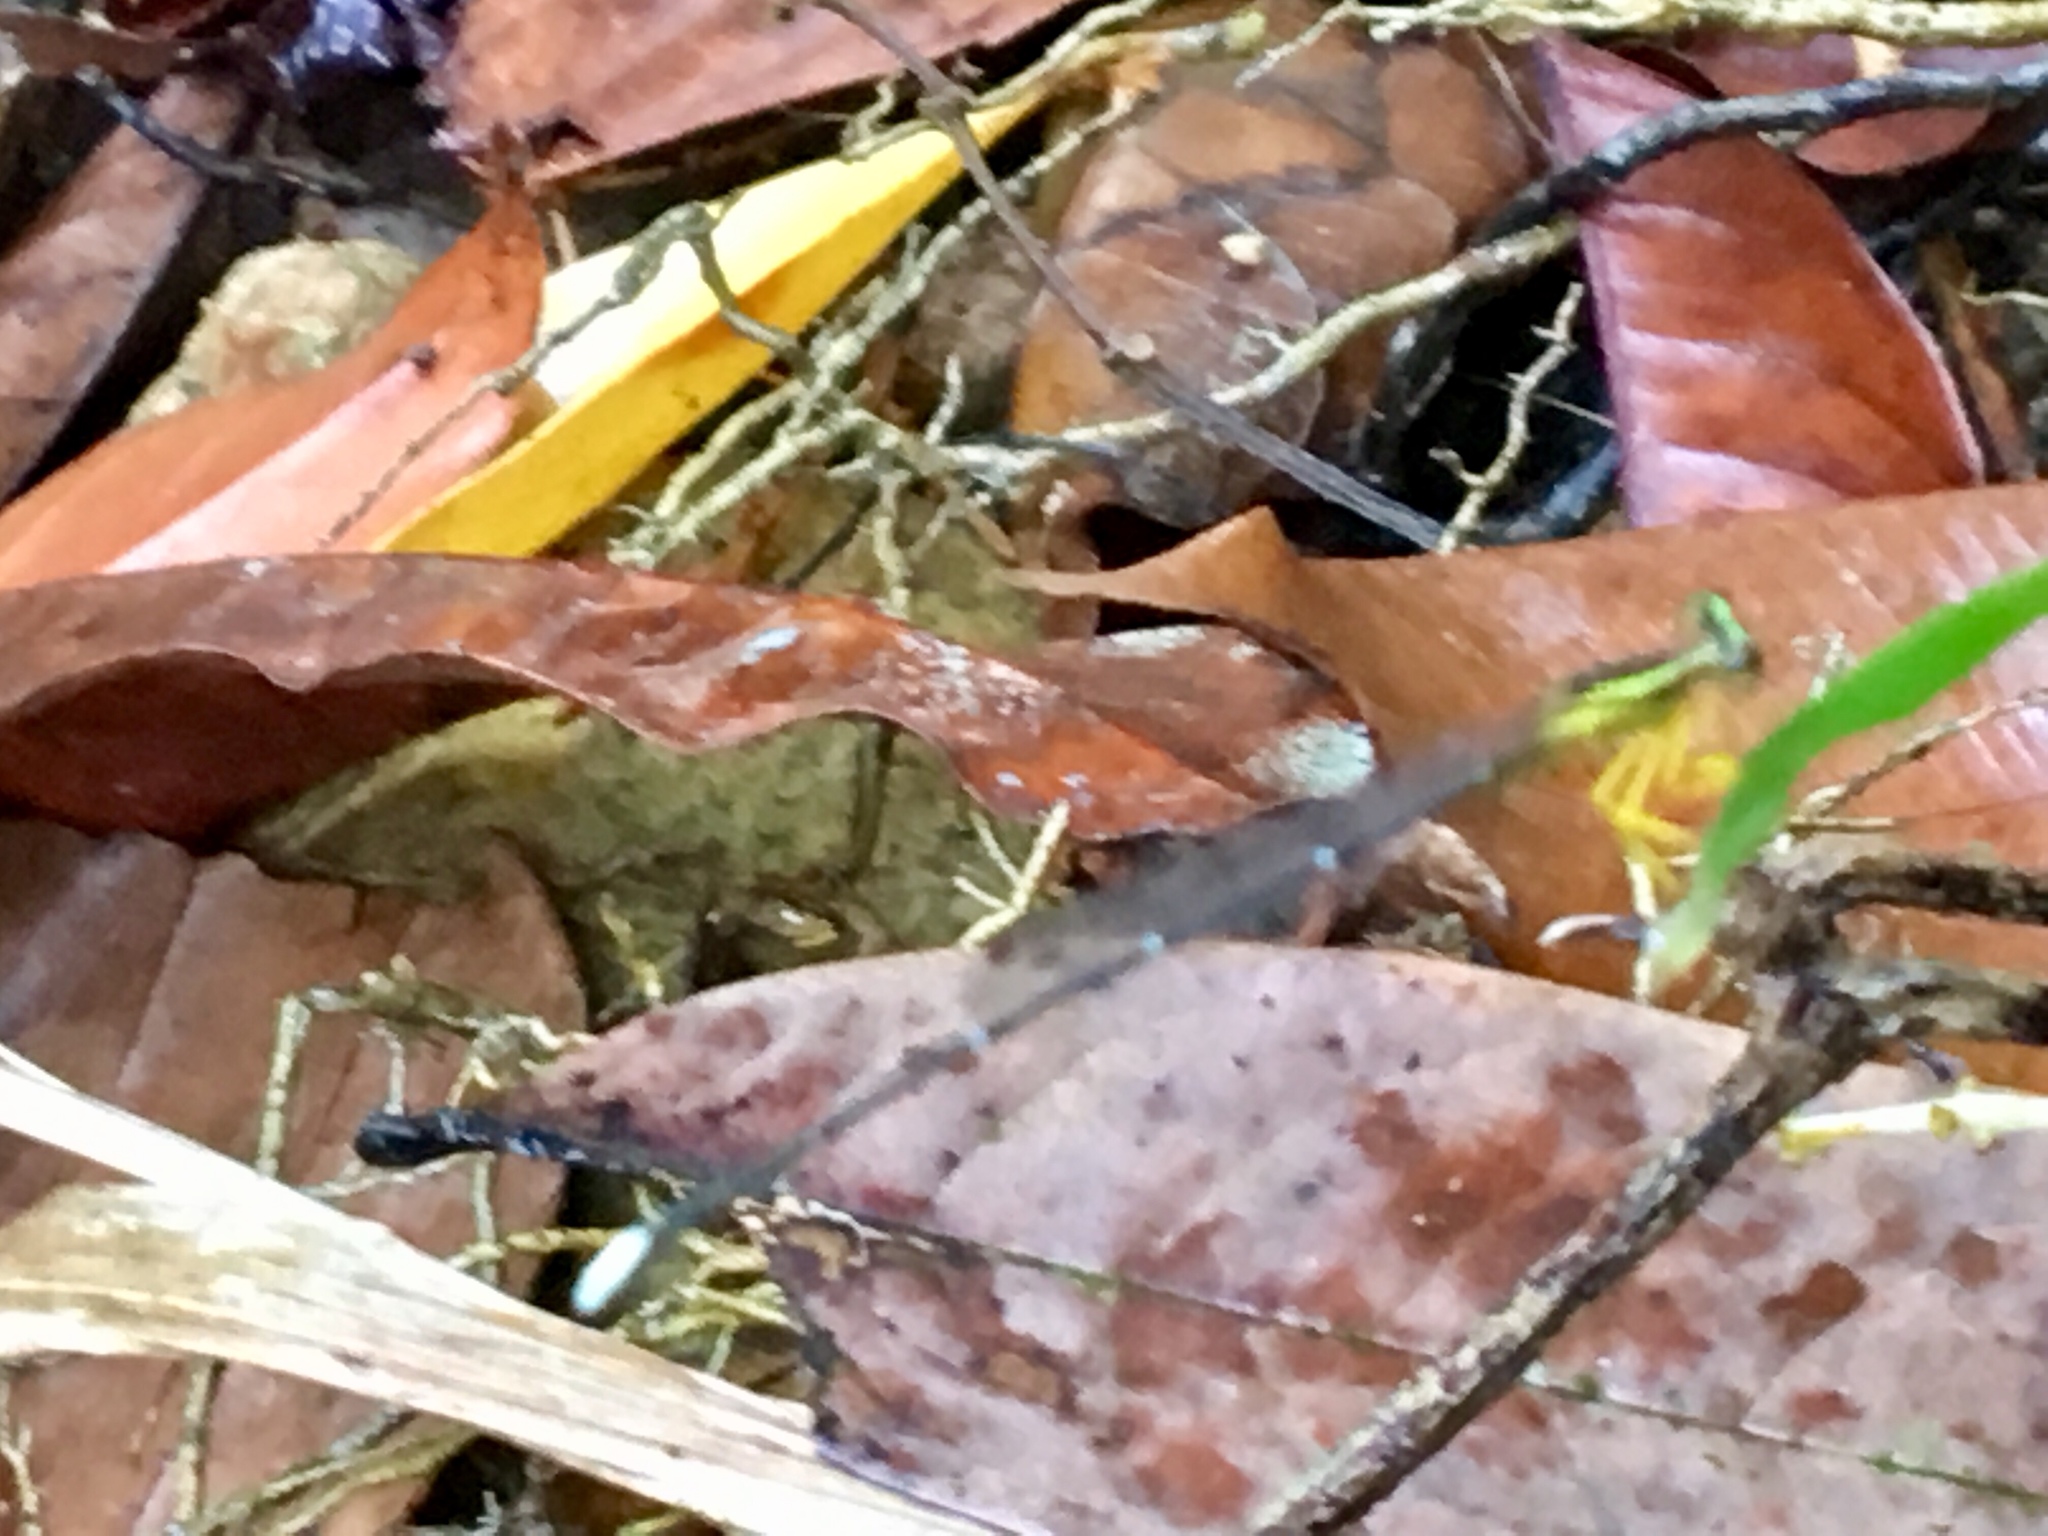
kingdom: Animalia
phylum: Arthropoda
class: Insecta
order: Odonata
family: Platycnemididae
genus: Copera
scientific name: Copera marginipes
